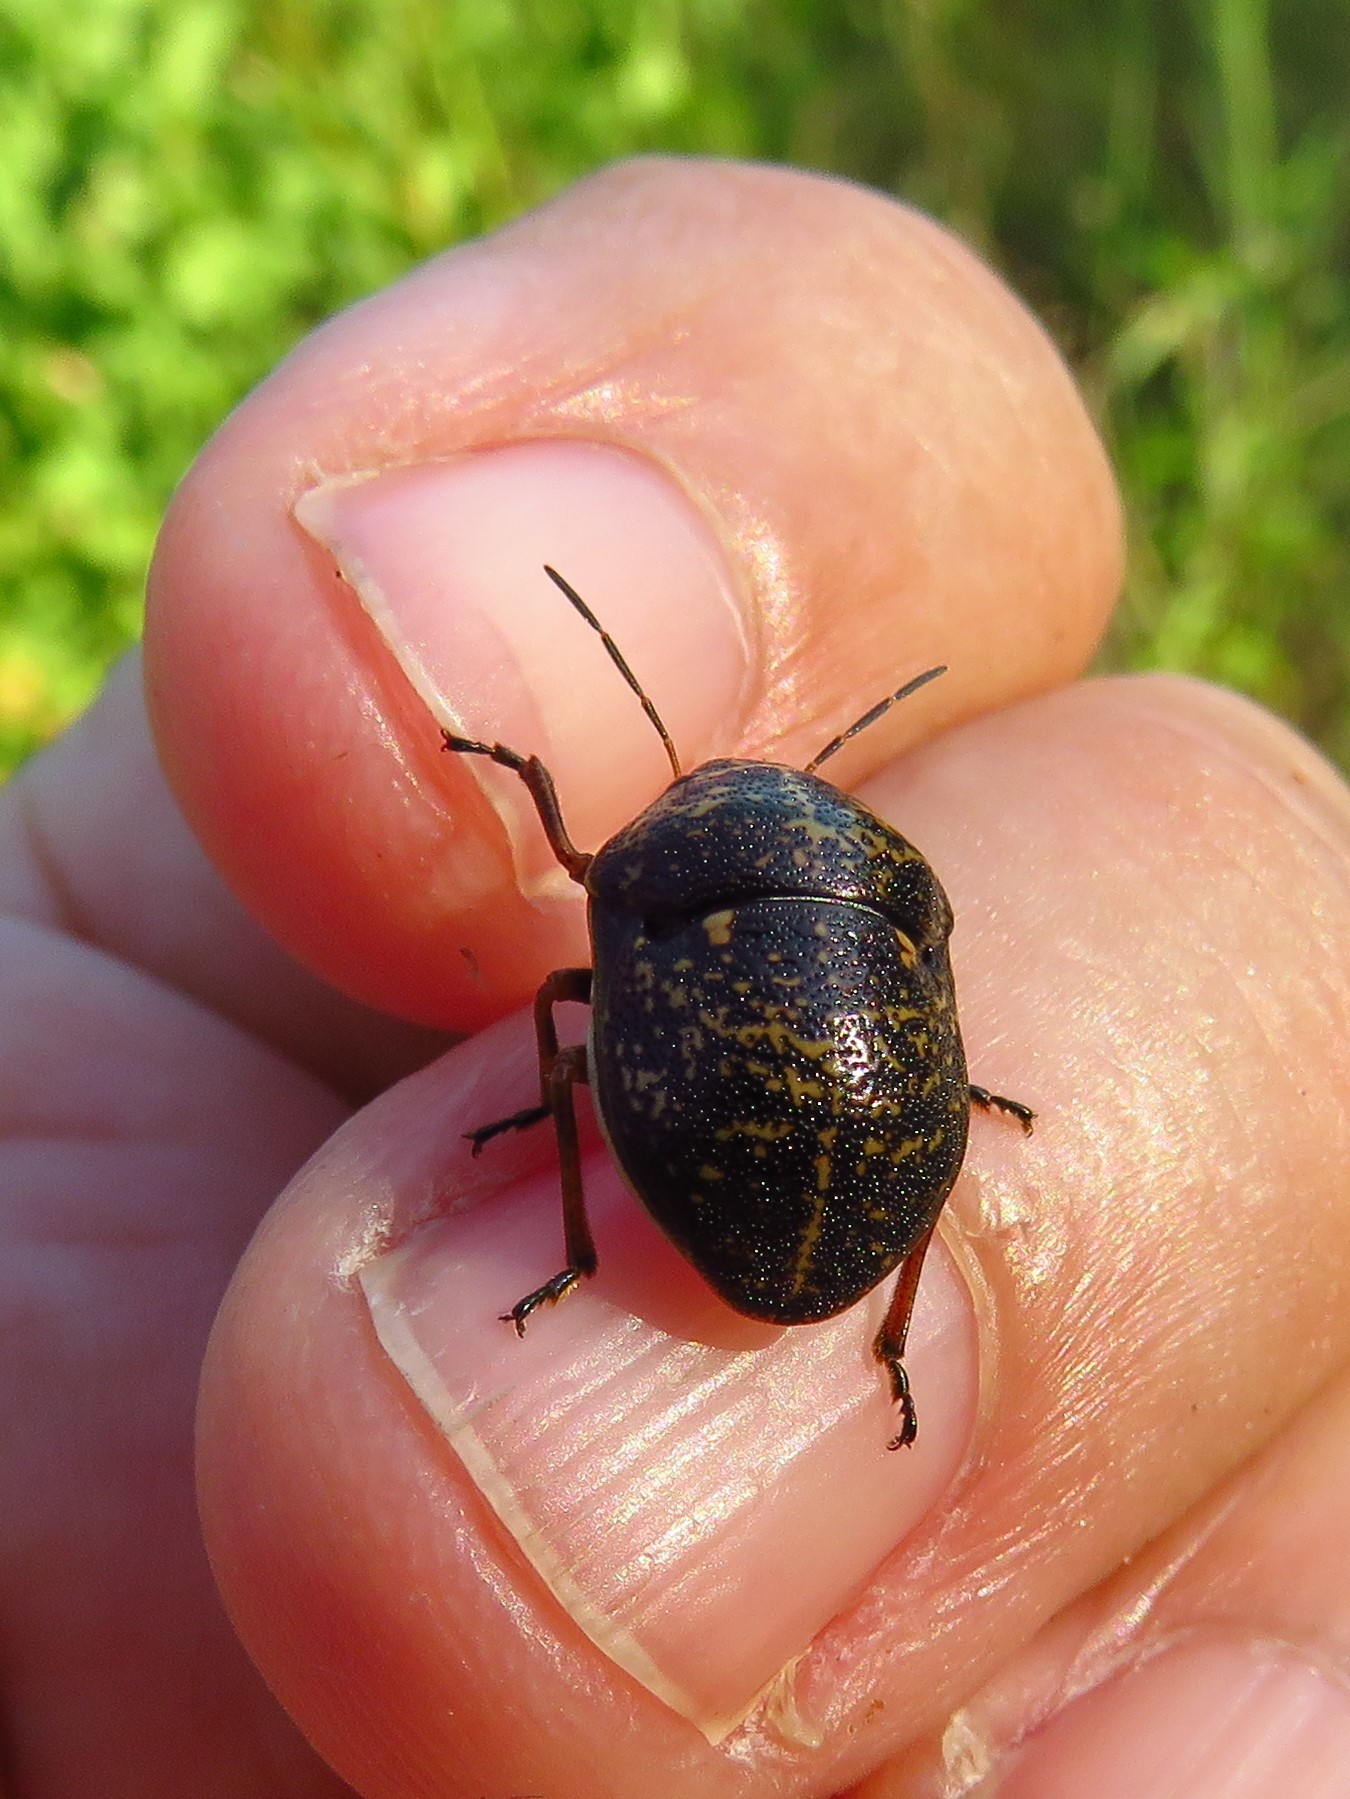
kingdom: Animalia
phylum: Arthropoda
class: Insecta
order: Hemiptera
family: Scutelleridae
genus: Orsilochides
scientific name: Orsilochides guttata
